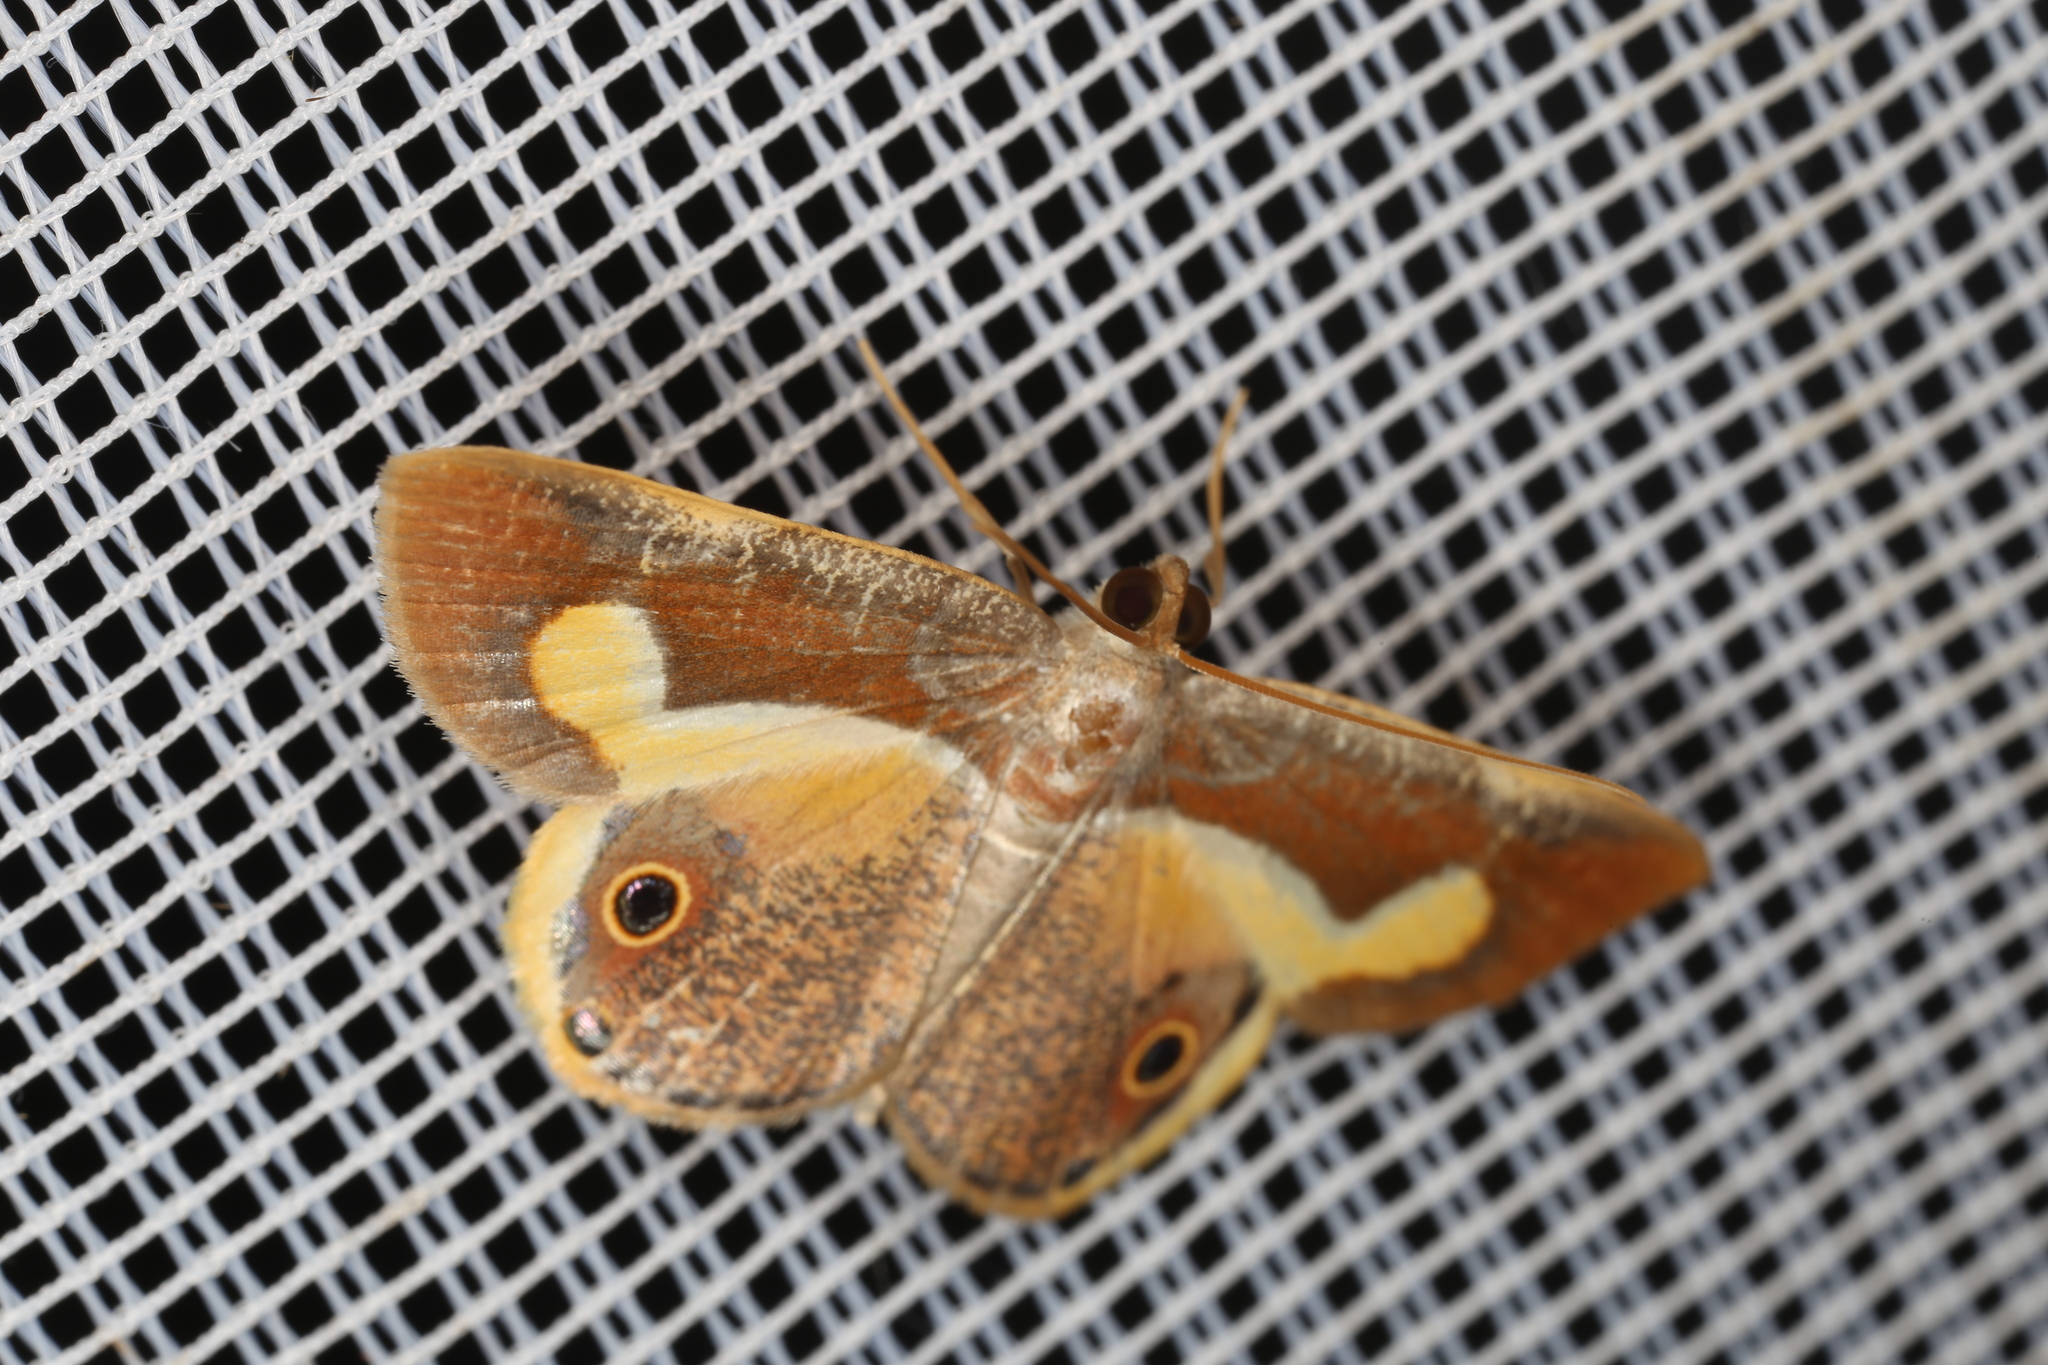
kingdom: Animalia
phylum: Arthropoda
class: Insecta
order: Lepidoptera
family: Geometridae
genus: Opisthoxia
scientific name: Opisthoxia molpadia
